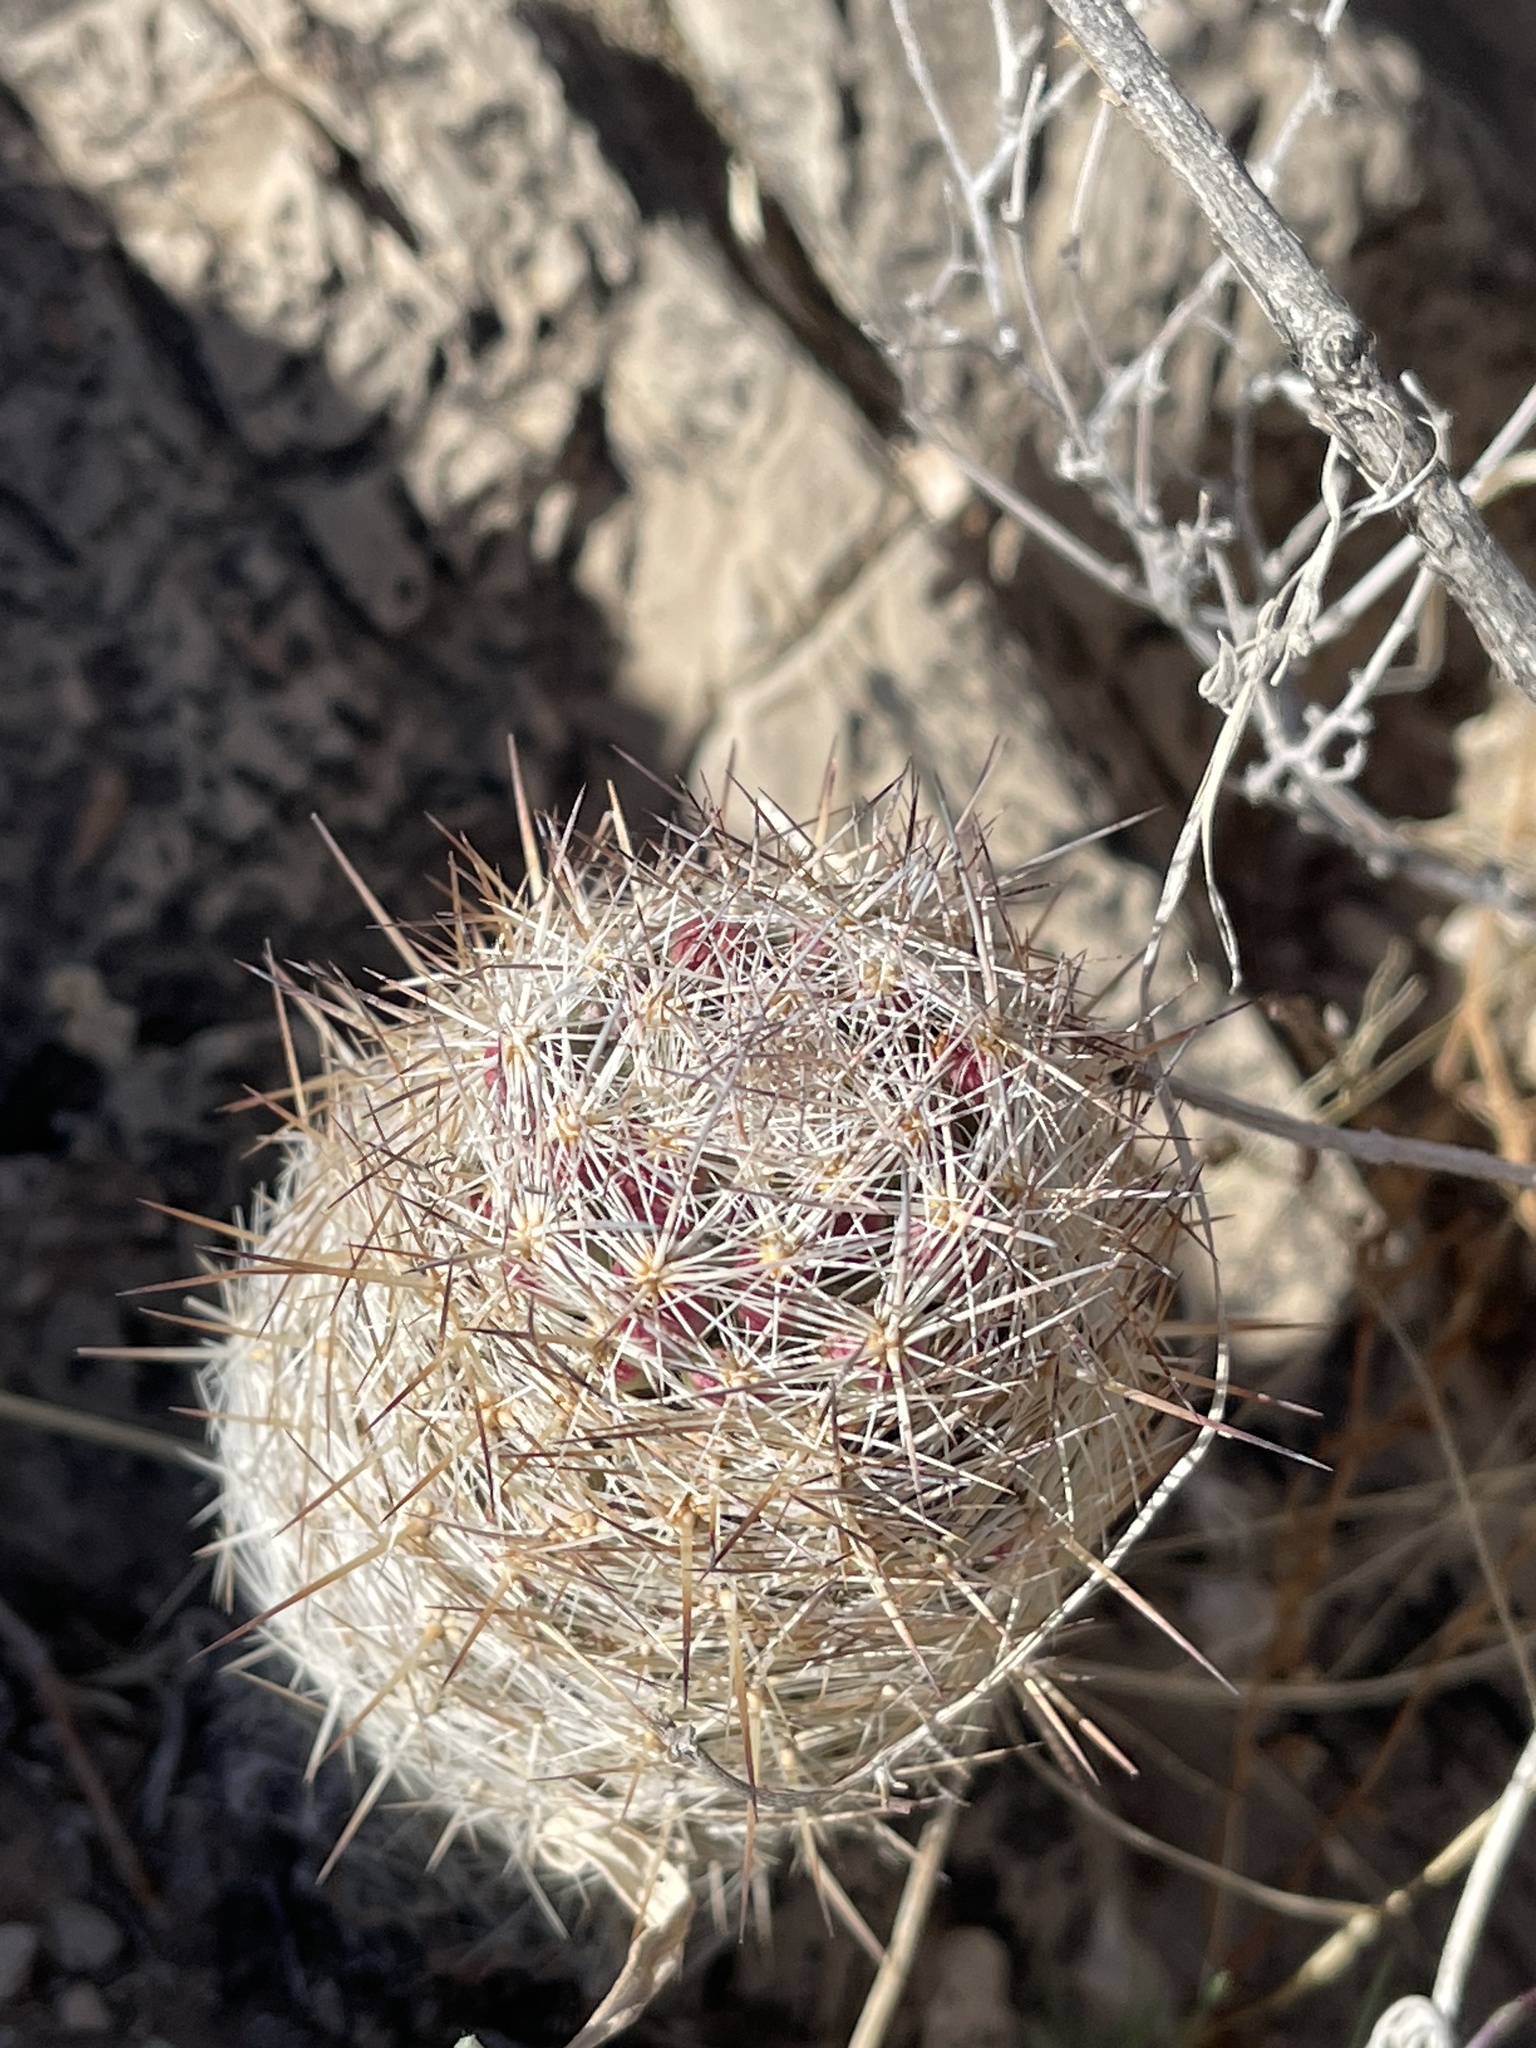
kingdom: Plantae
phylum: Tracheophyta
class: Magnoliopsida
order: Caryophyllales
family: Cactaceae
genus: Pelecyphora
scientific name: Pelecyphora tuberculosa
